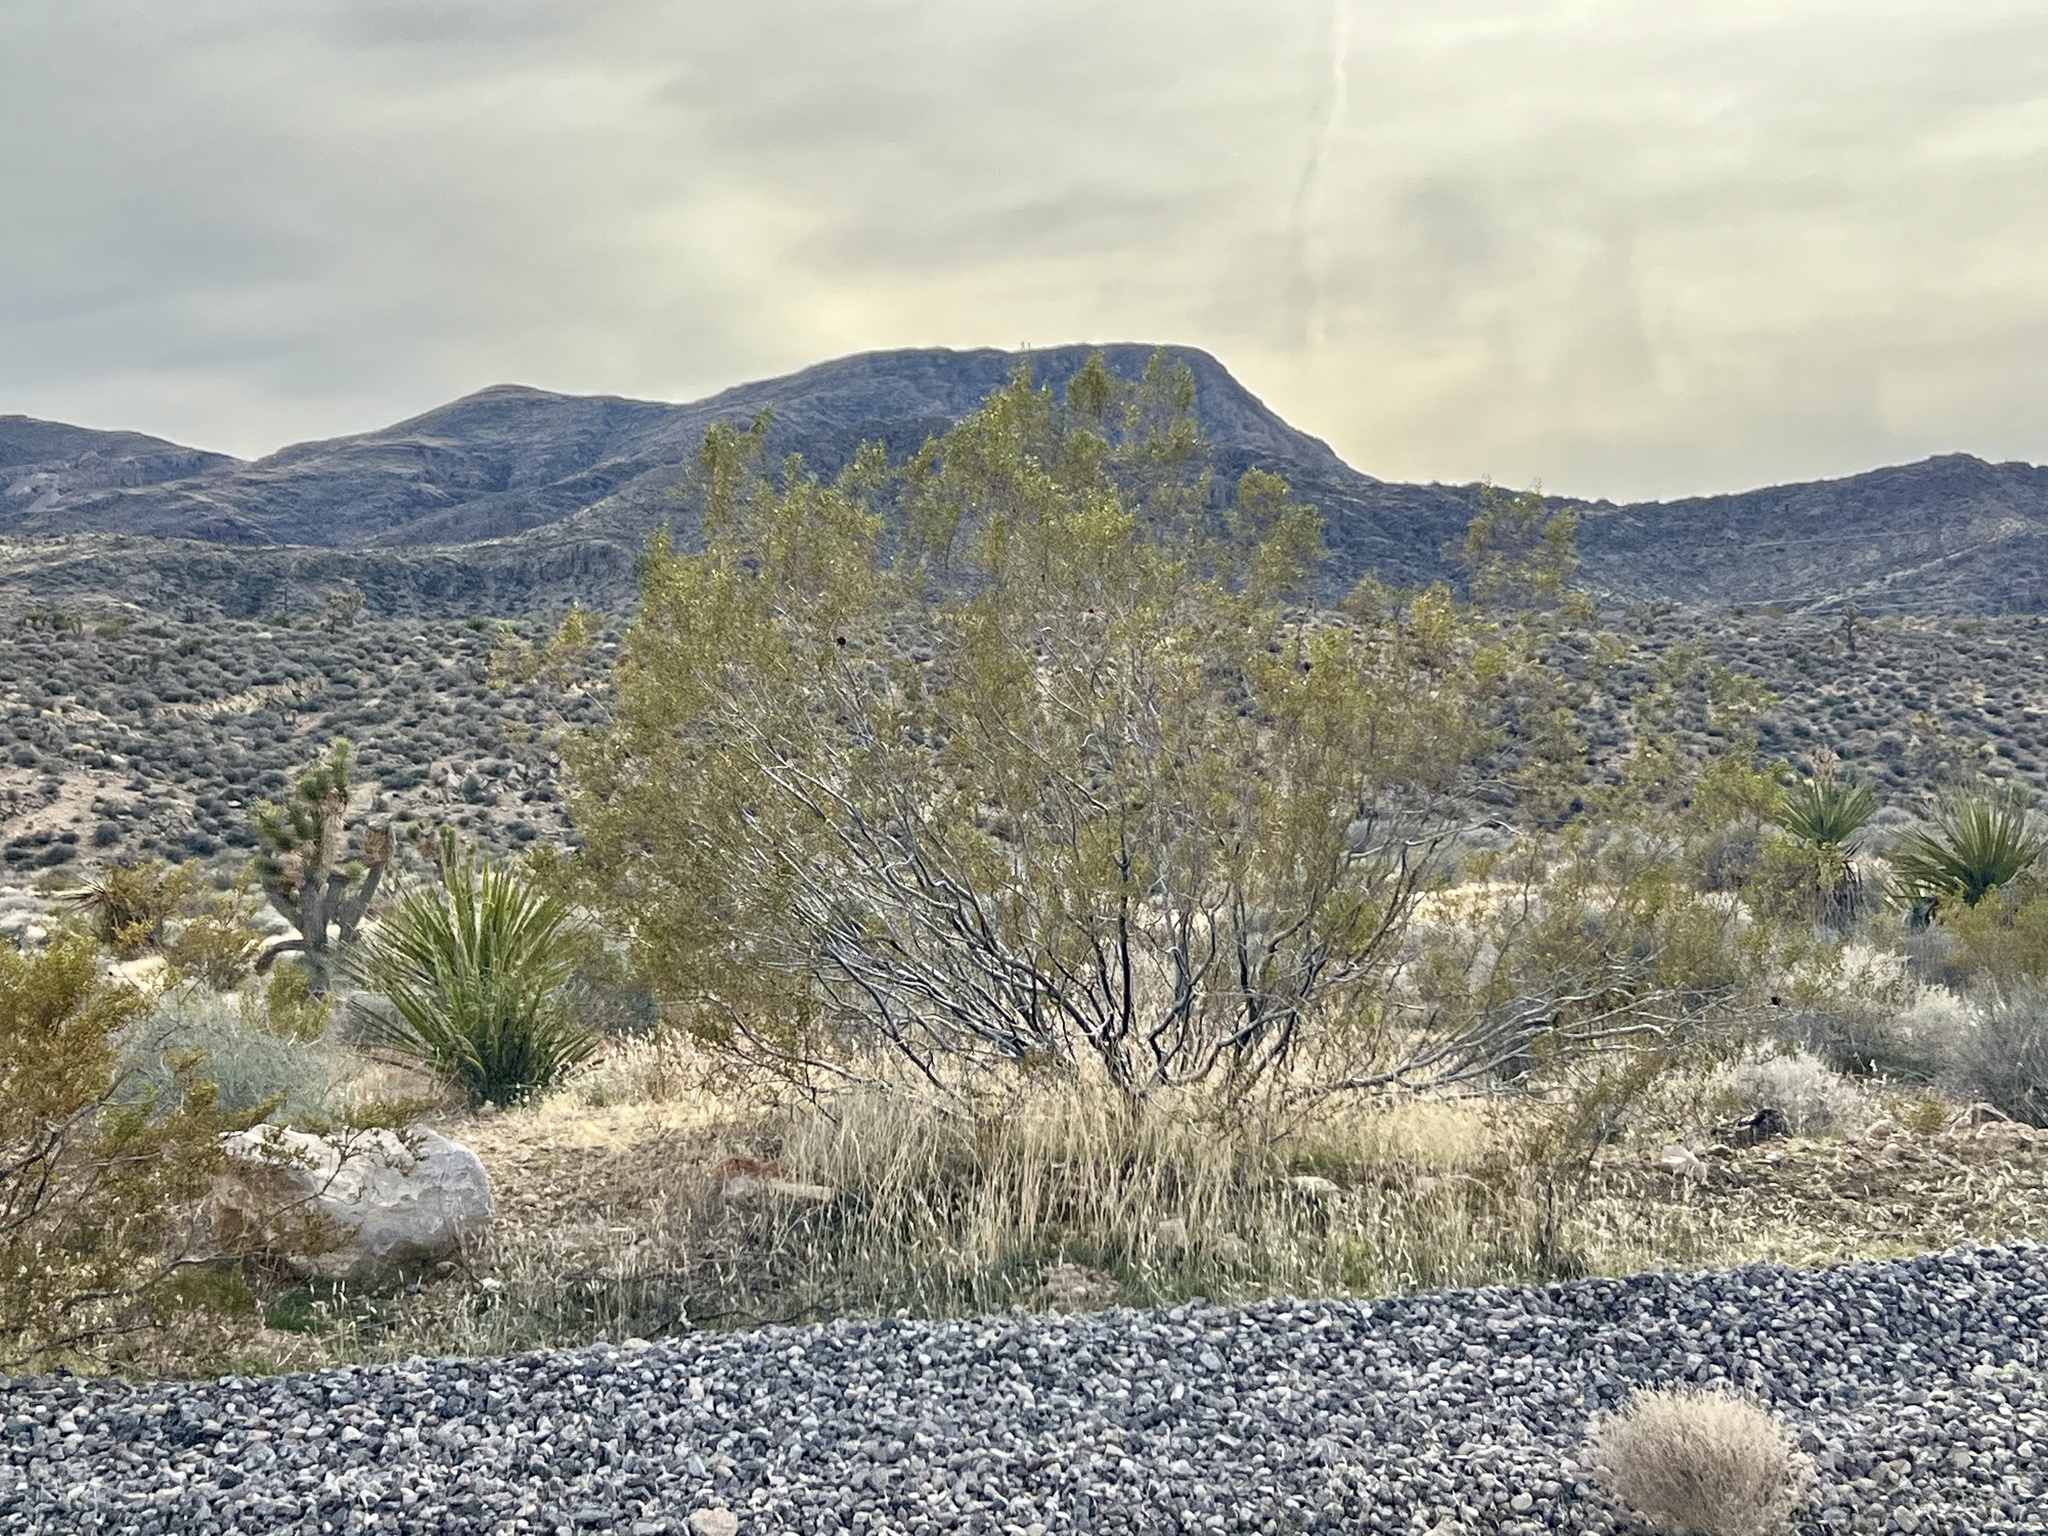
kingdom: Plantae
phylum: Tracheophyta
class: Magnoliopsida
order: Zygophyllales
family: Zygophyllaceae
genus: Larrea
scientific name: Larrea tridentata
